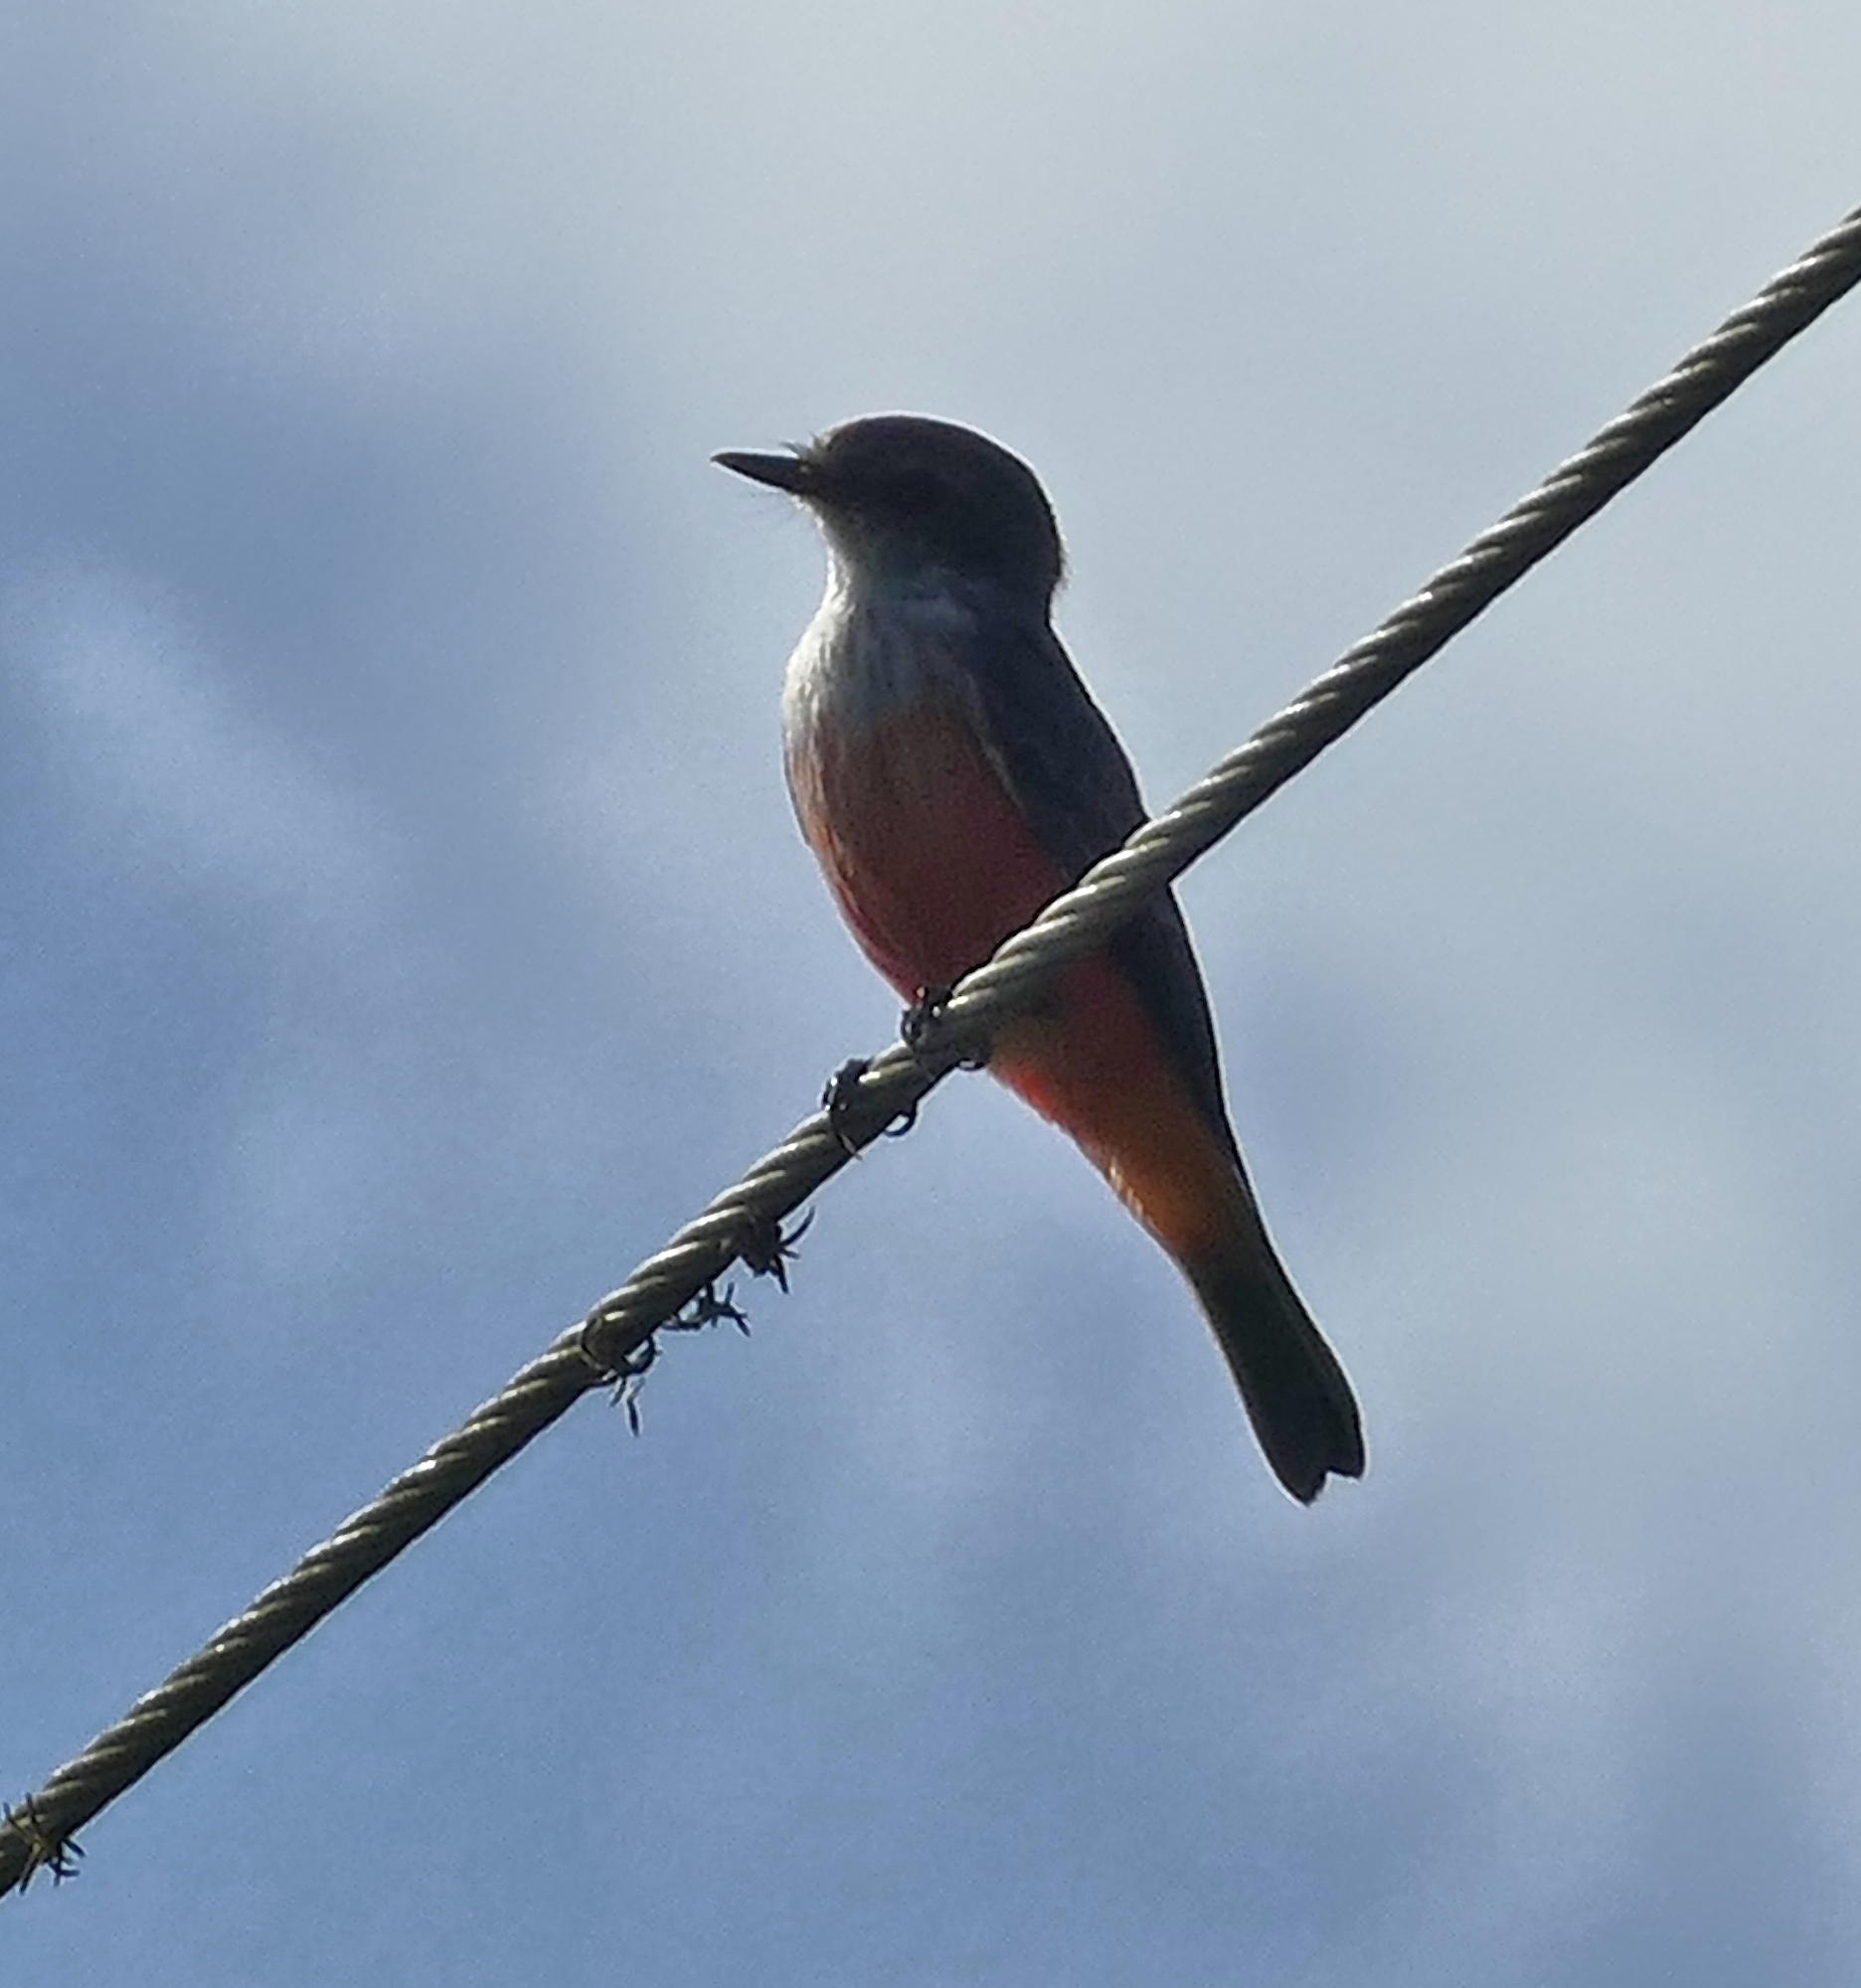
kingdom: Animalia
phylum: Chordata
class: Aves
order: Passeriformes
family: Tyrannidae
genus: Pyrocephalus
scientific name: Pyrocephalus rubinus
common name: Vermilion flycatcher
